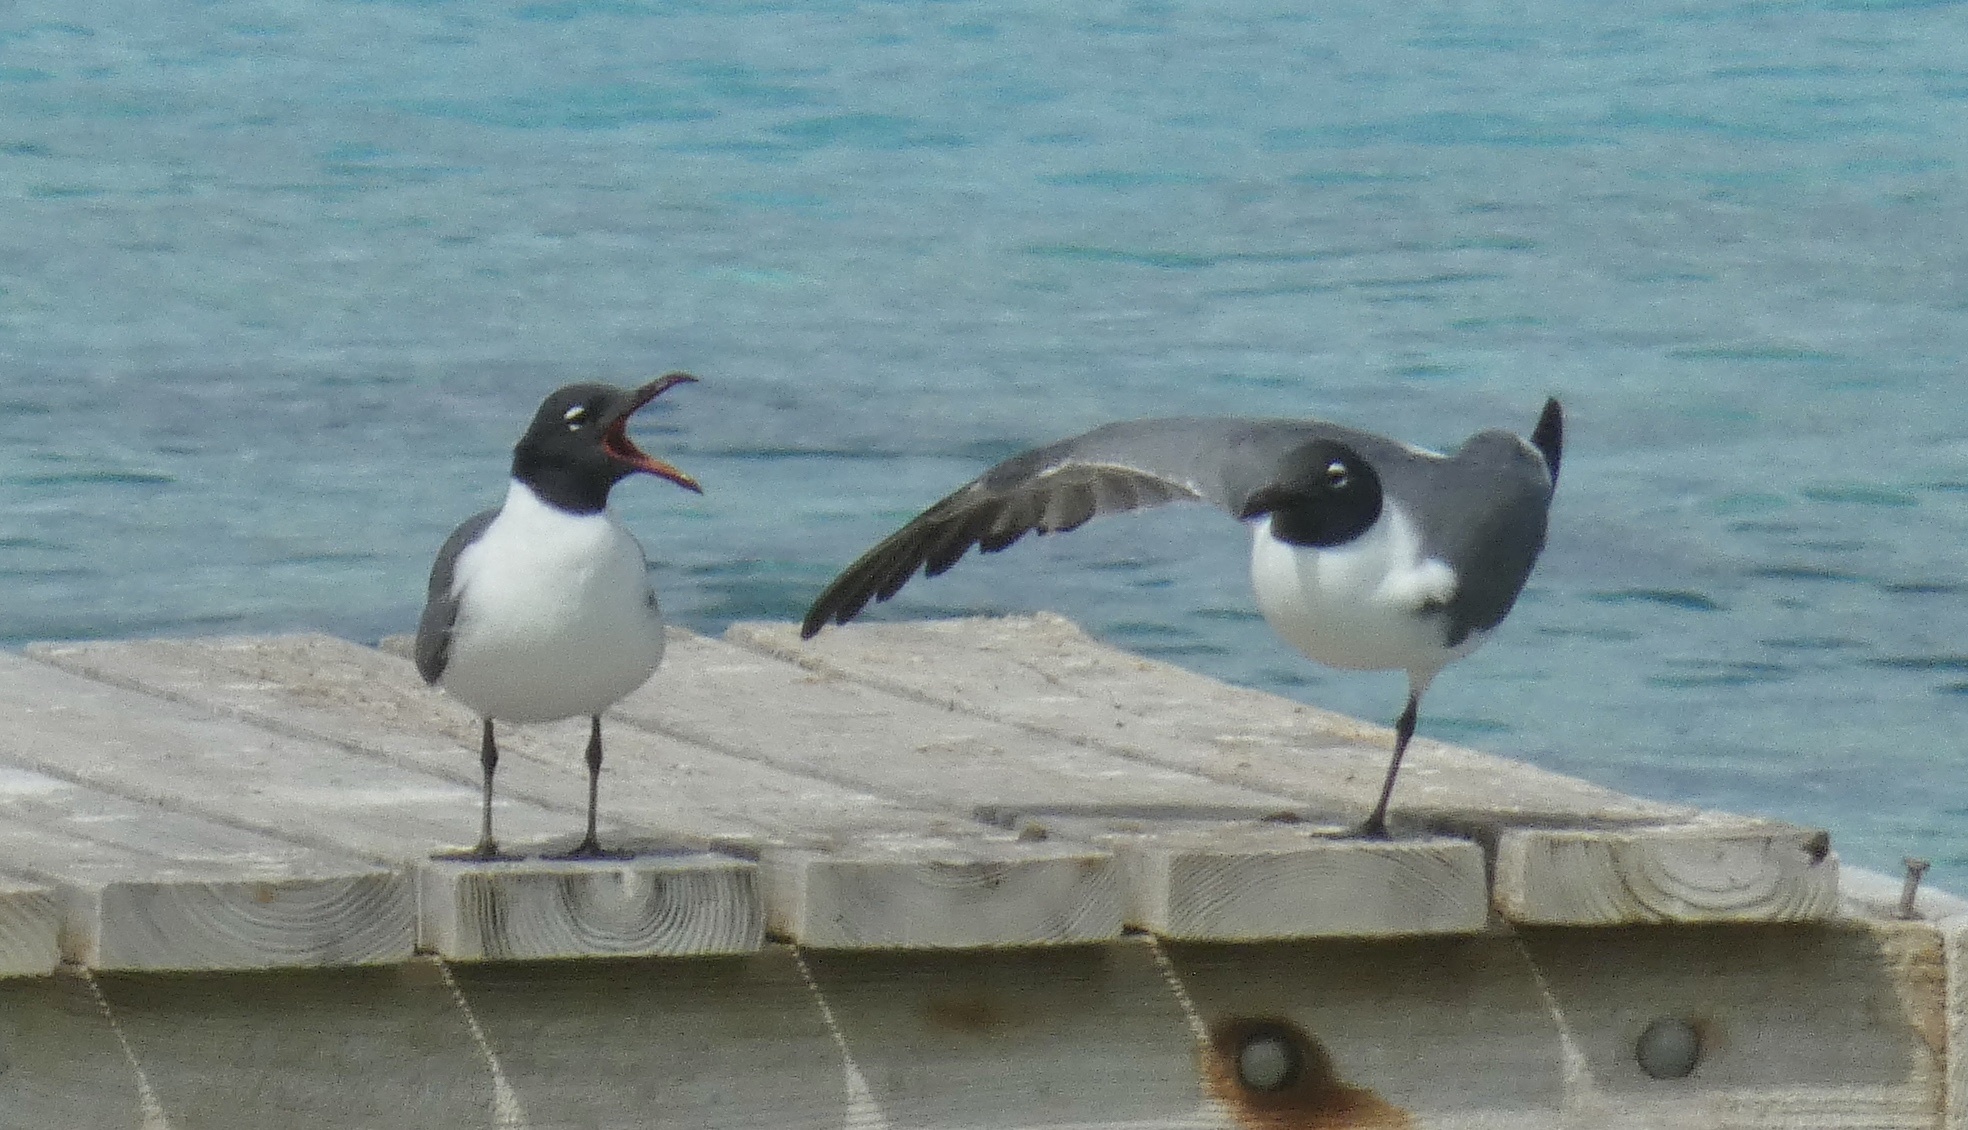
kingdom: Animalia
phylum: Chordata
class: Aves
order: Charadriiformes
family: Laridae
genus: Leucophaeus
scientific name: Leucophaeus atricilla
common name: Laughing gull
